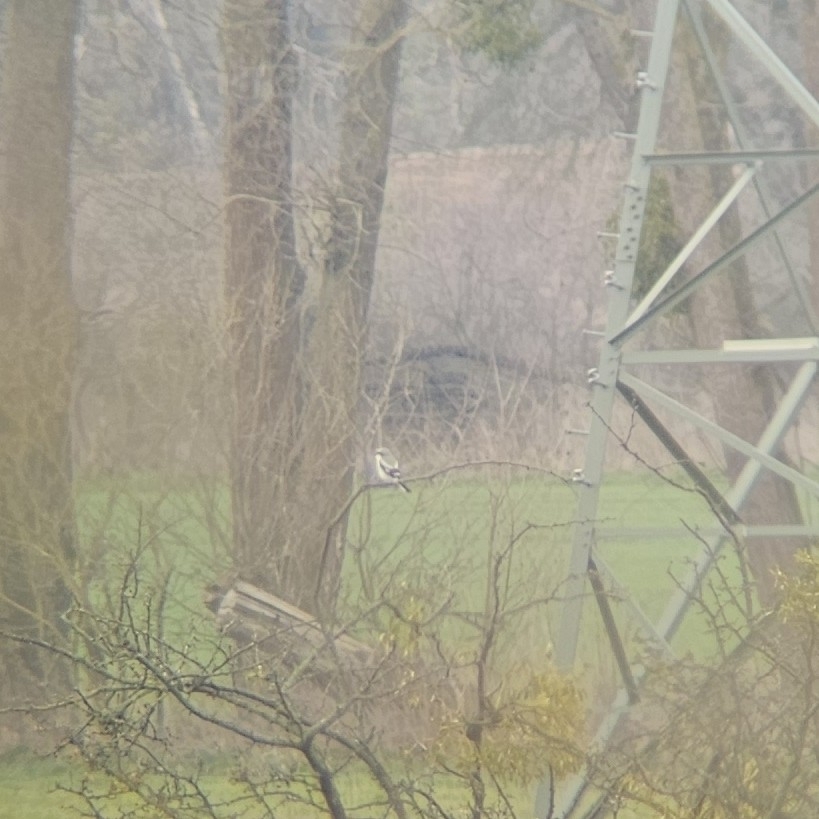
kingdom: Animalia
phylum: Chordata
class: Aves
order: Passeriformes
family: Laniidae
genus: Lanius
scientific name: Lanius excubitor
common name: Great grey shrike
